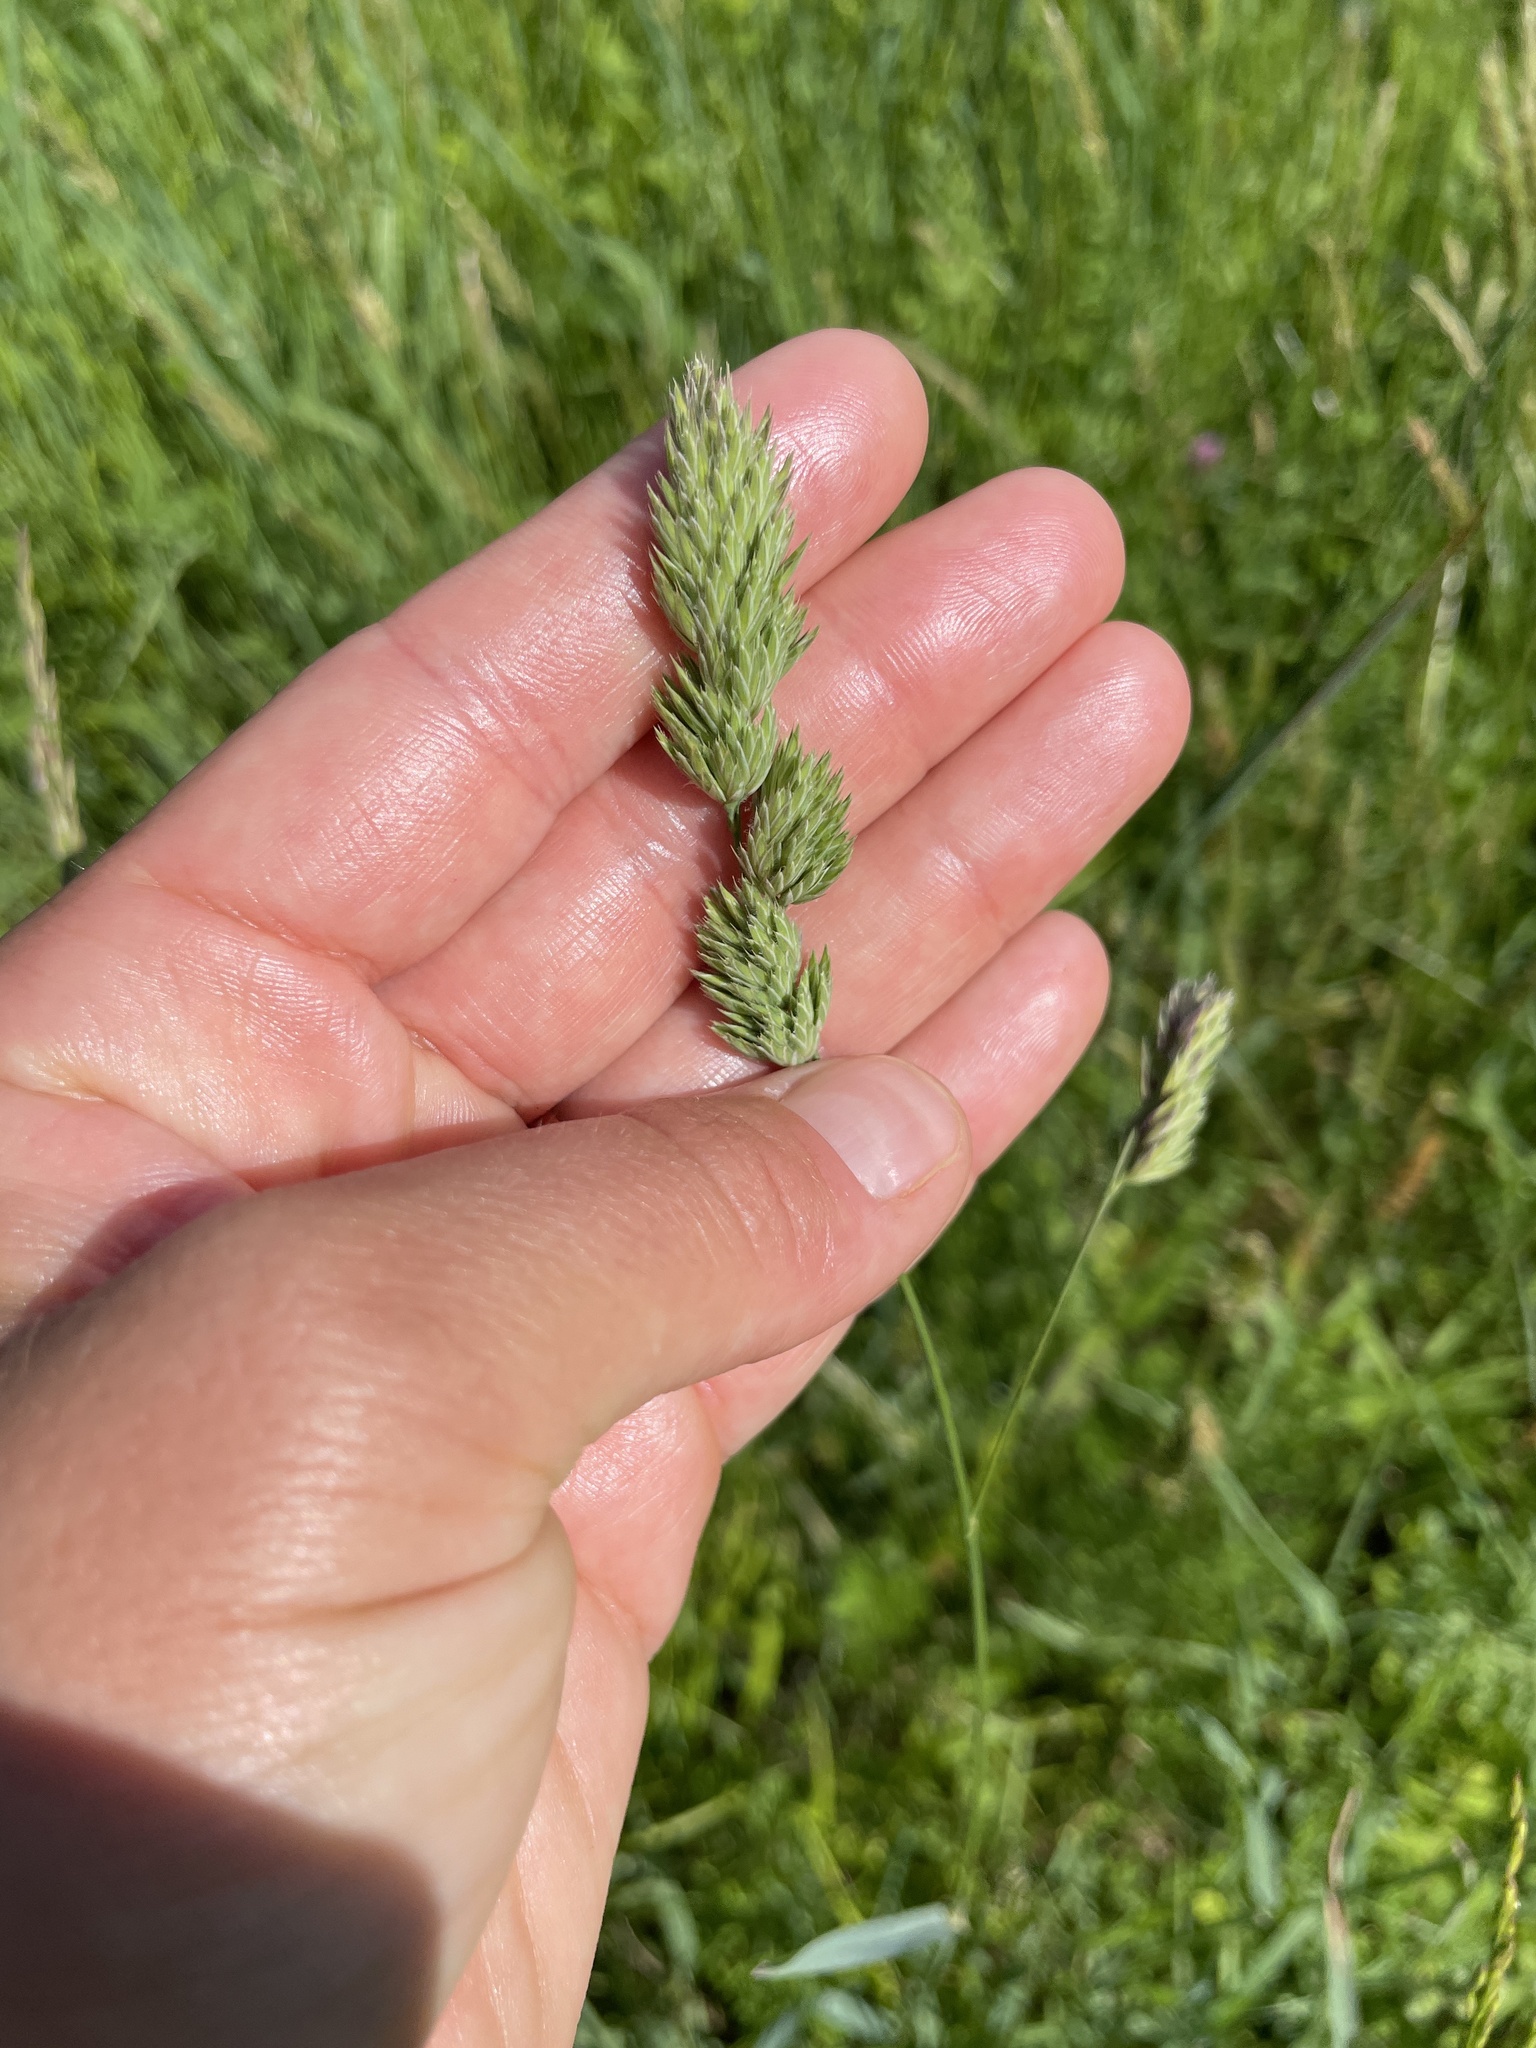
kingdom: Plantae
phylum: Tracheophyta
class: Liliopsida
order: Poales
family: Poaceae
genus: Dactylis
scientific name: Dactylis glomerata
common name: Orchardgrass
